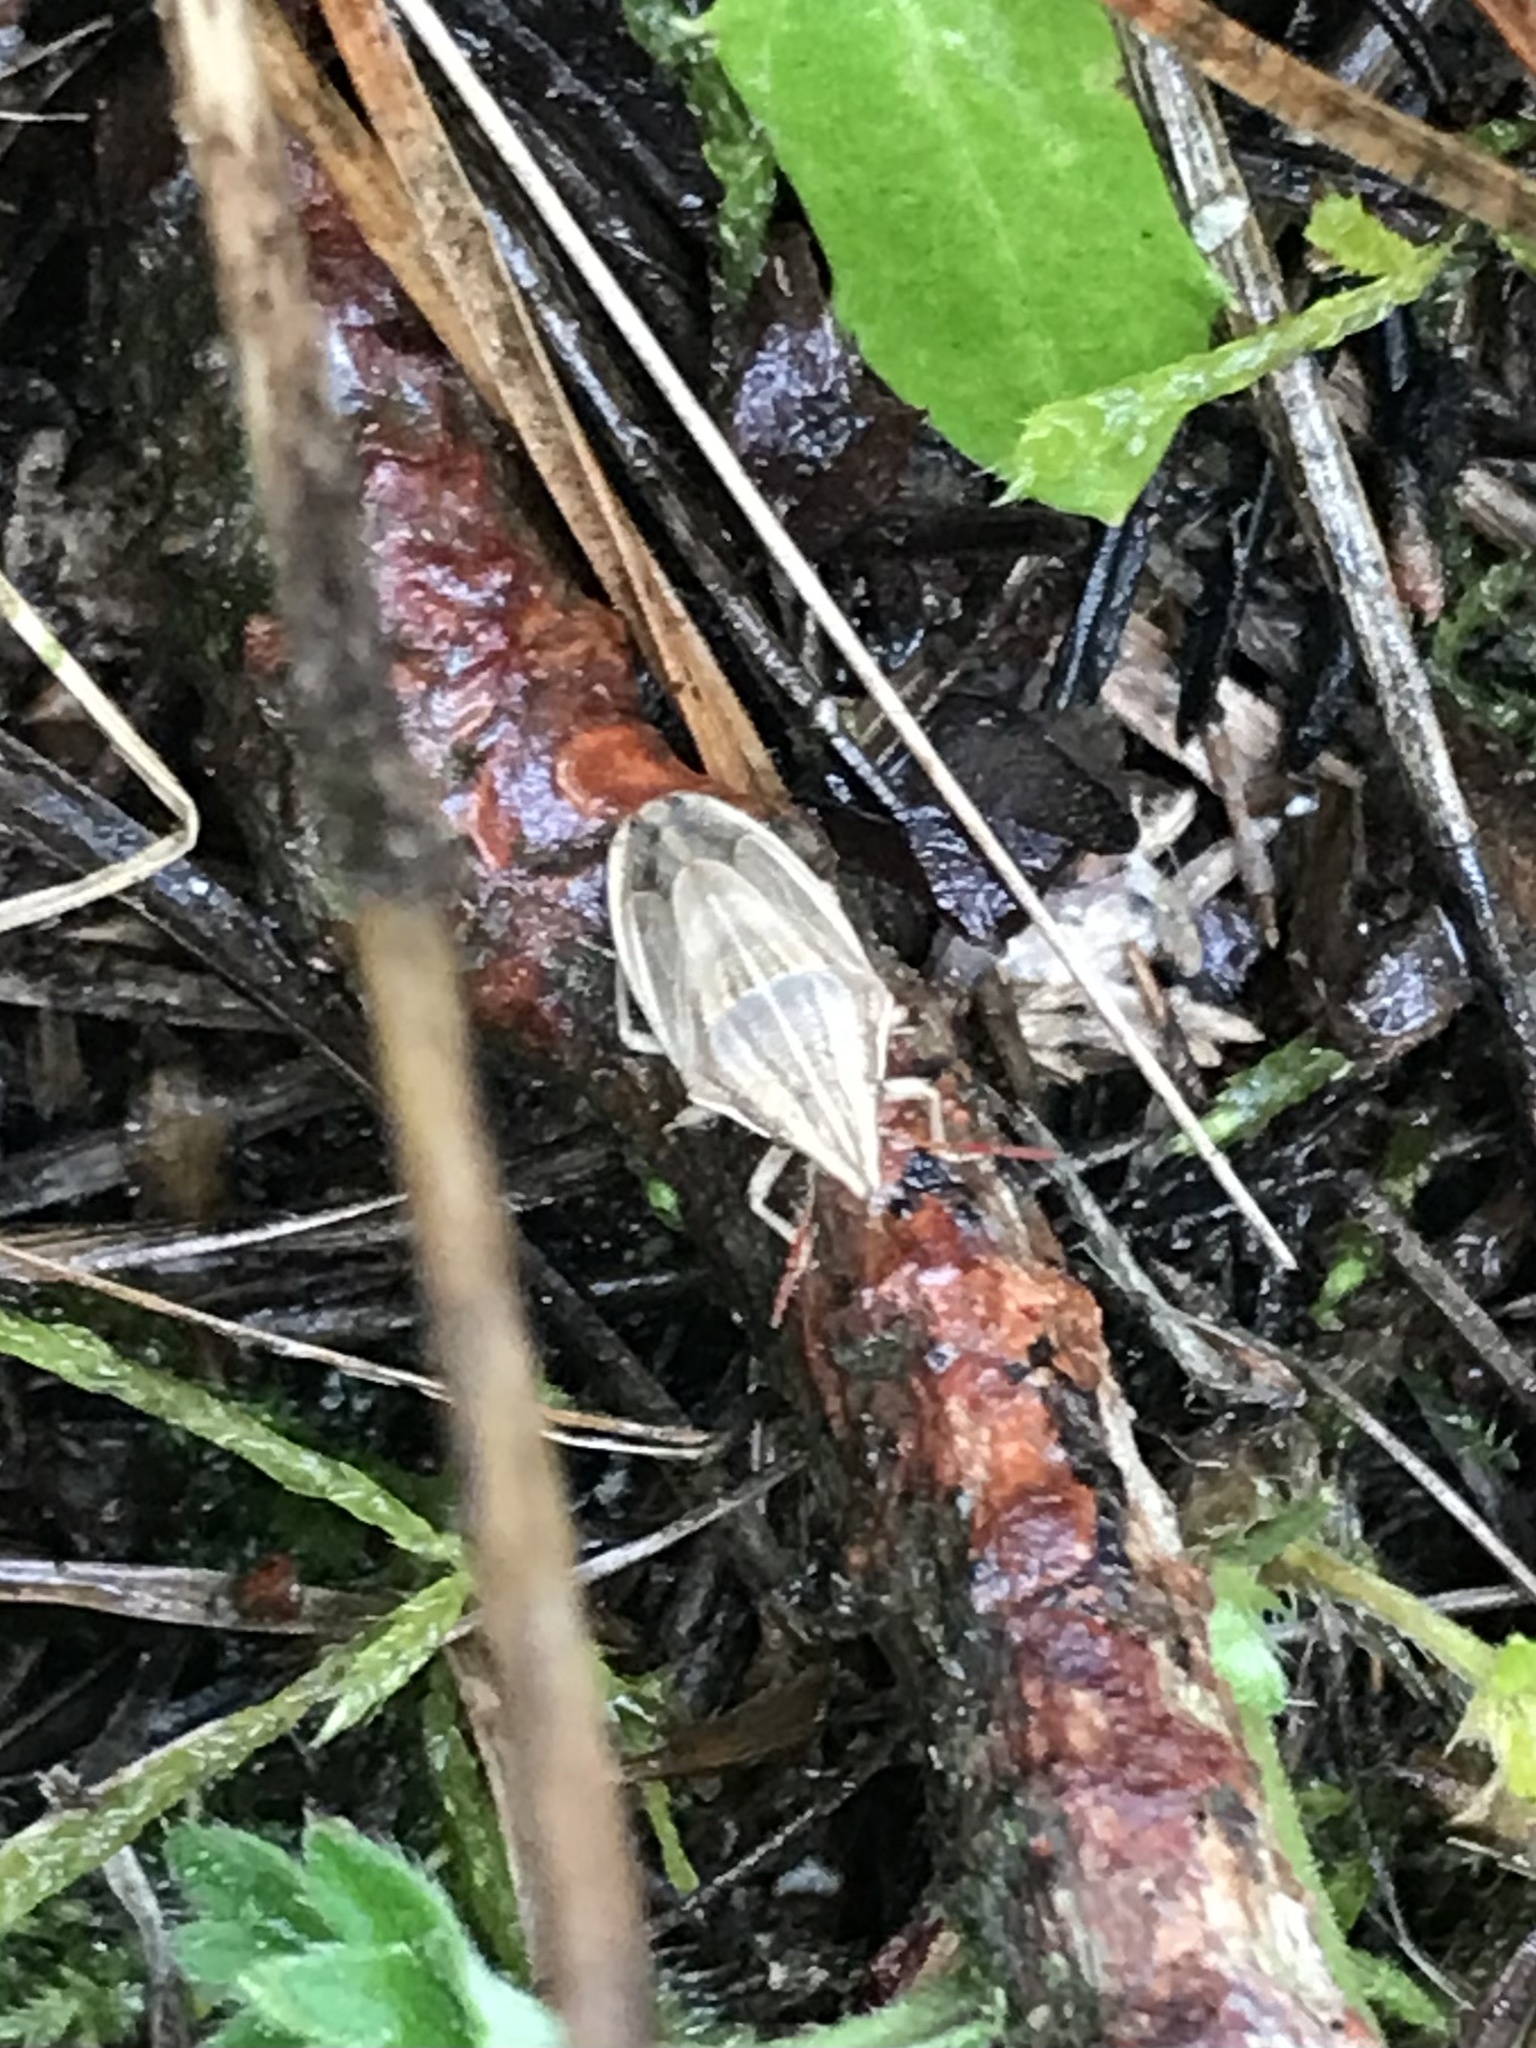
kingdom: Animalia
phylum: Arthropoda
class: Insecta
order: Hemiptera
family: Pentatomidae
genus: Aelia
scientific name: Aelia acuminata
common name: Bishop's mitre
